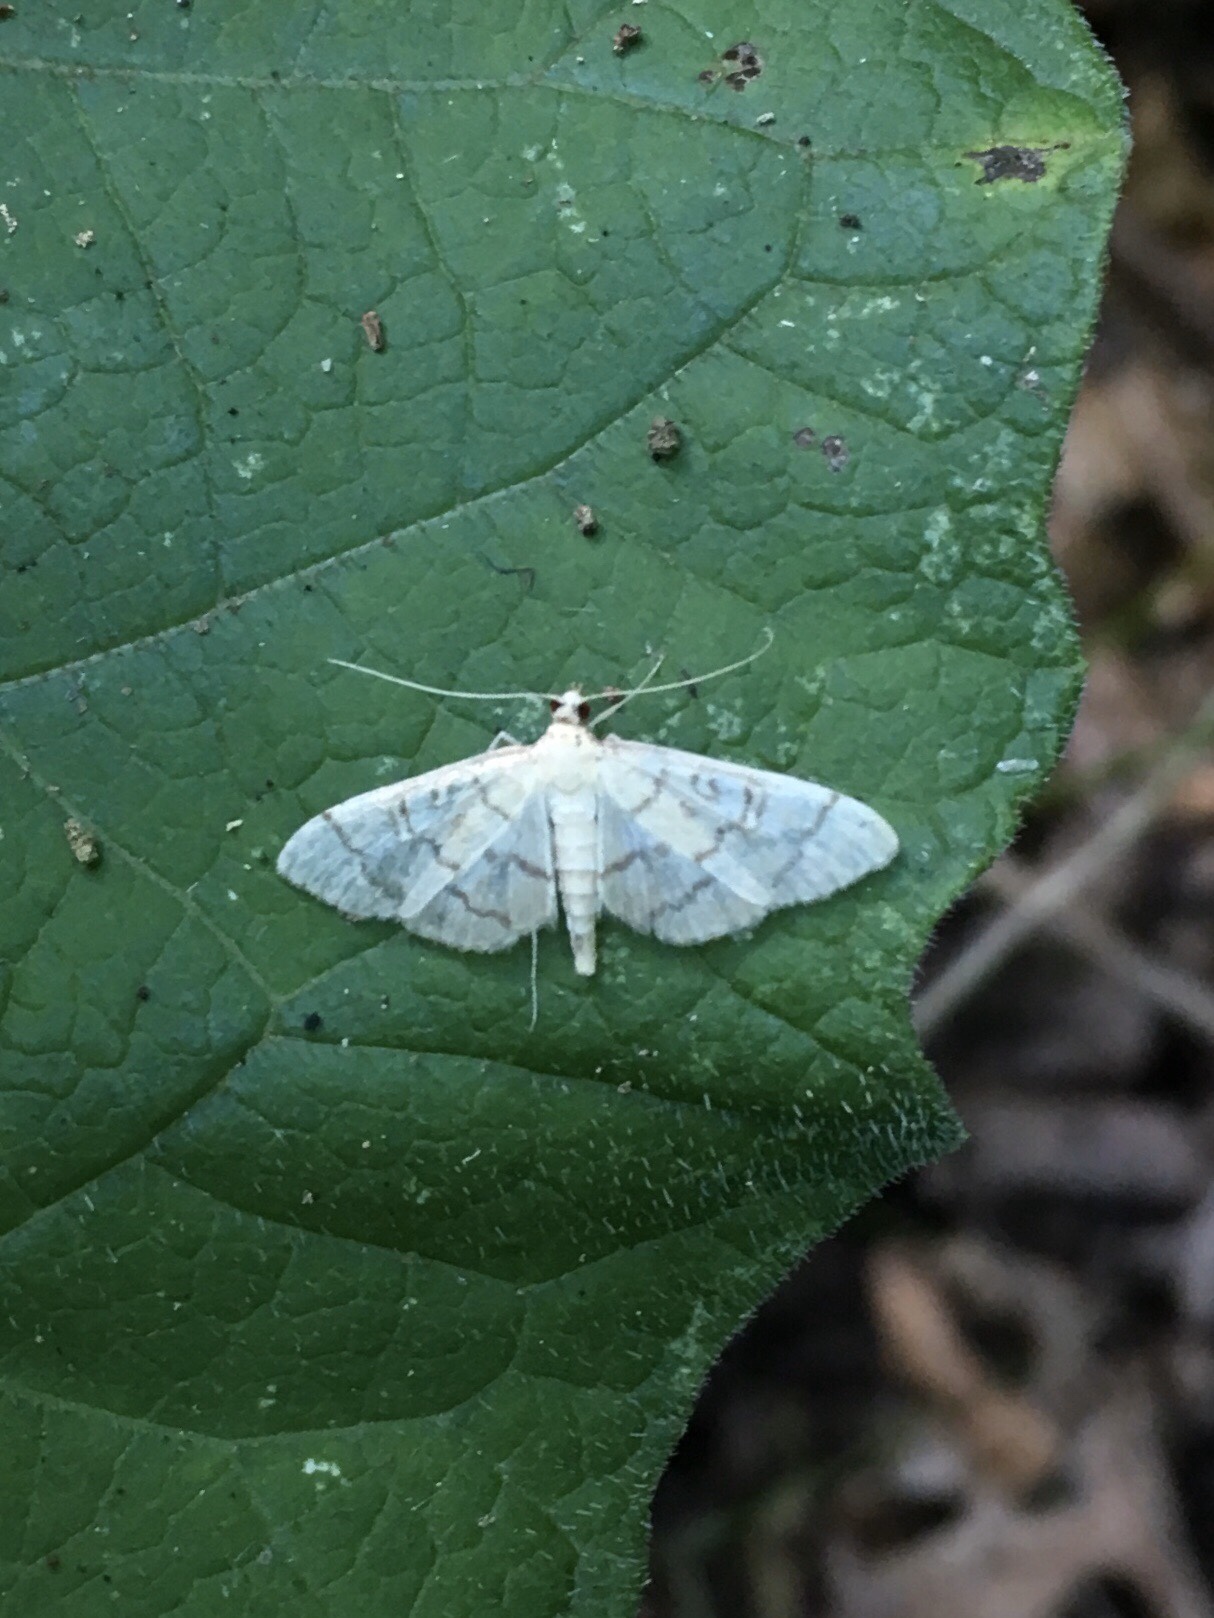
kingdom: Animalia
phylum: Arthropoda
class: Insecta
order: Lepidoptera
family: Crambidae
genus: Lamprosema
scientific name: Lamprosema Blepharomastix ranalis
